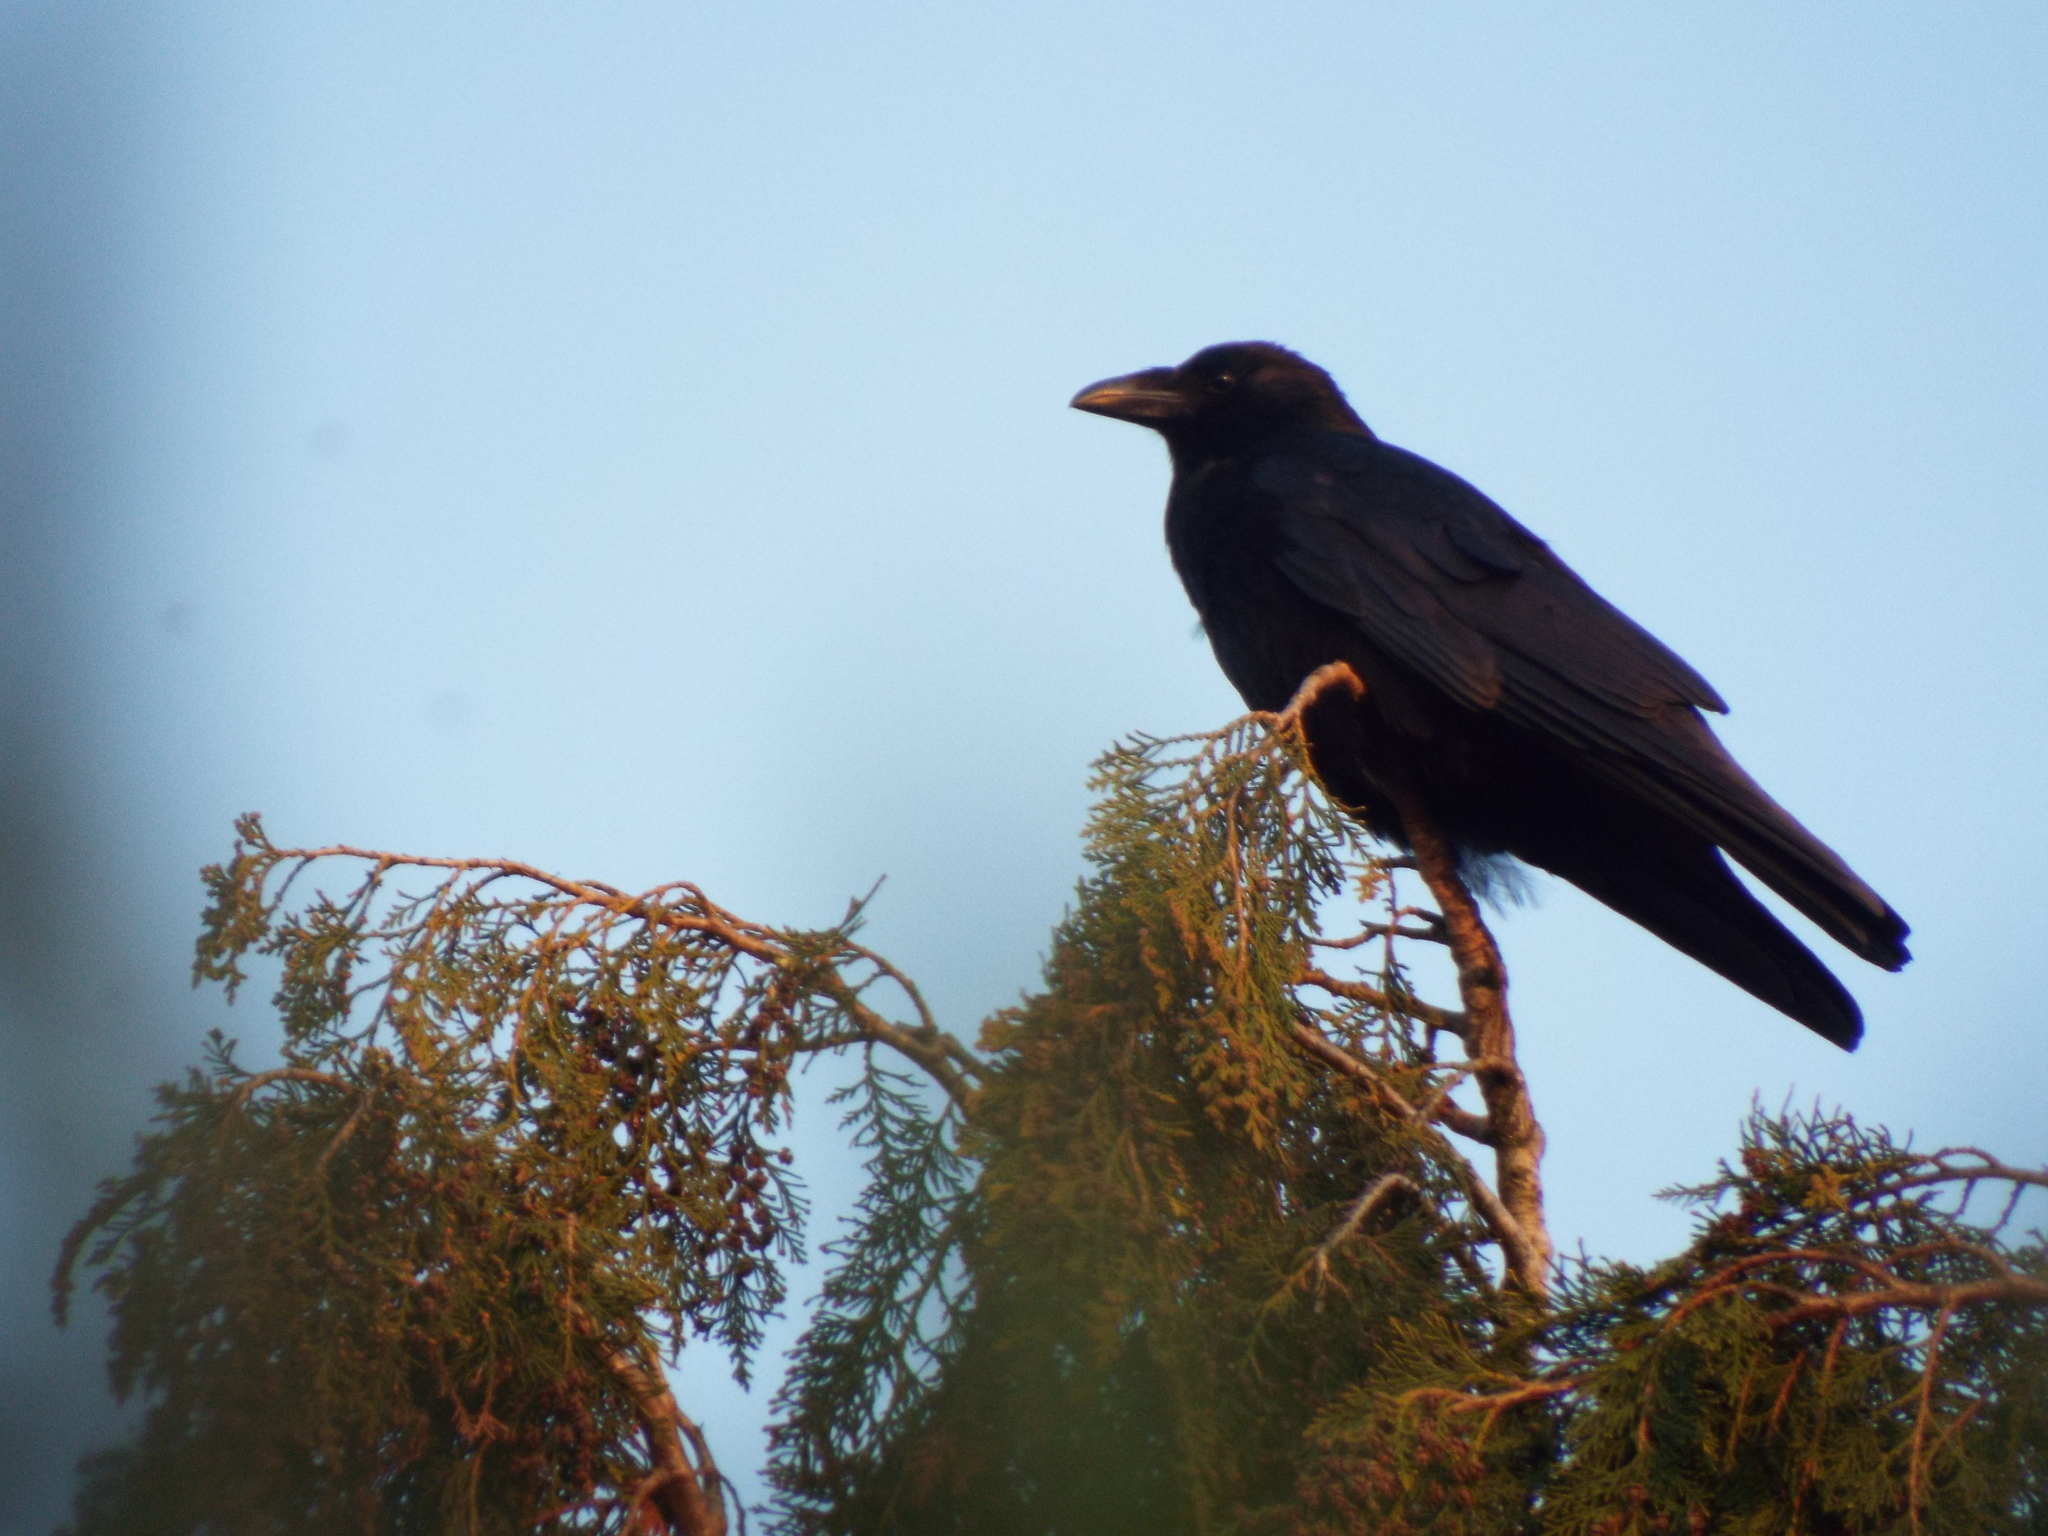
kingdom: Animalia
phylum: Chordata
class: Aves
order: Passeriformes
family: Corvidae
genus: Corvus
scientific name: Corvus corone
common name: Carrion crow
